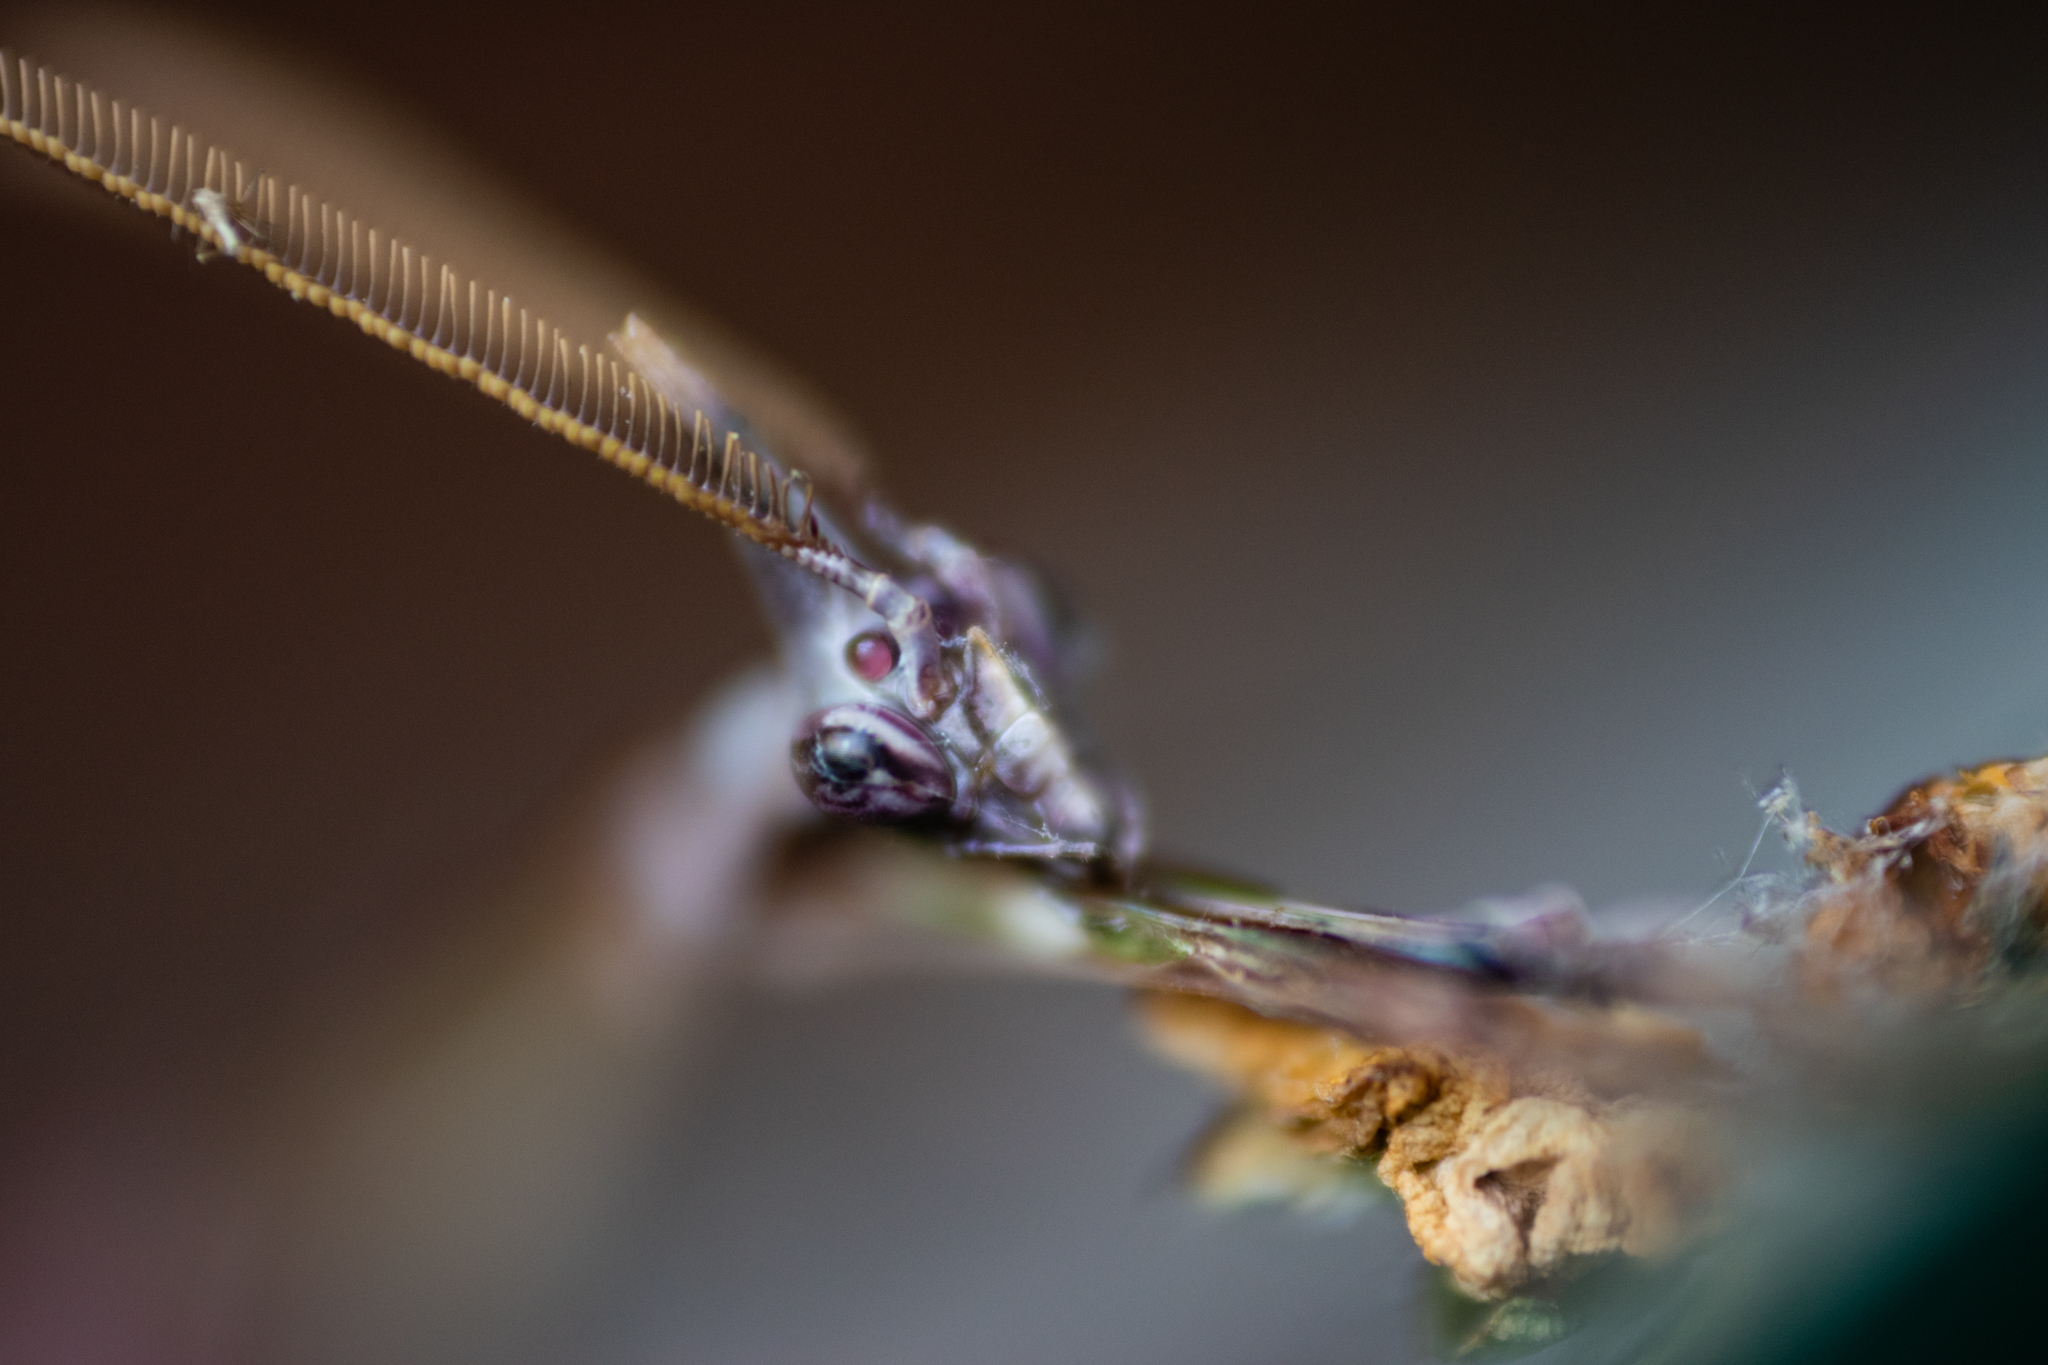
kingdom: Animalia
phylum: Arthropoda
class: Insecta
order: Mantodea
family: Empusidae
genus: Empusa
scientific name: Empusa pennata
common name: Conehead mantis
